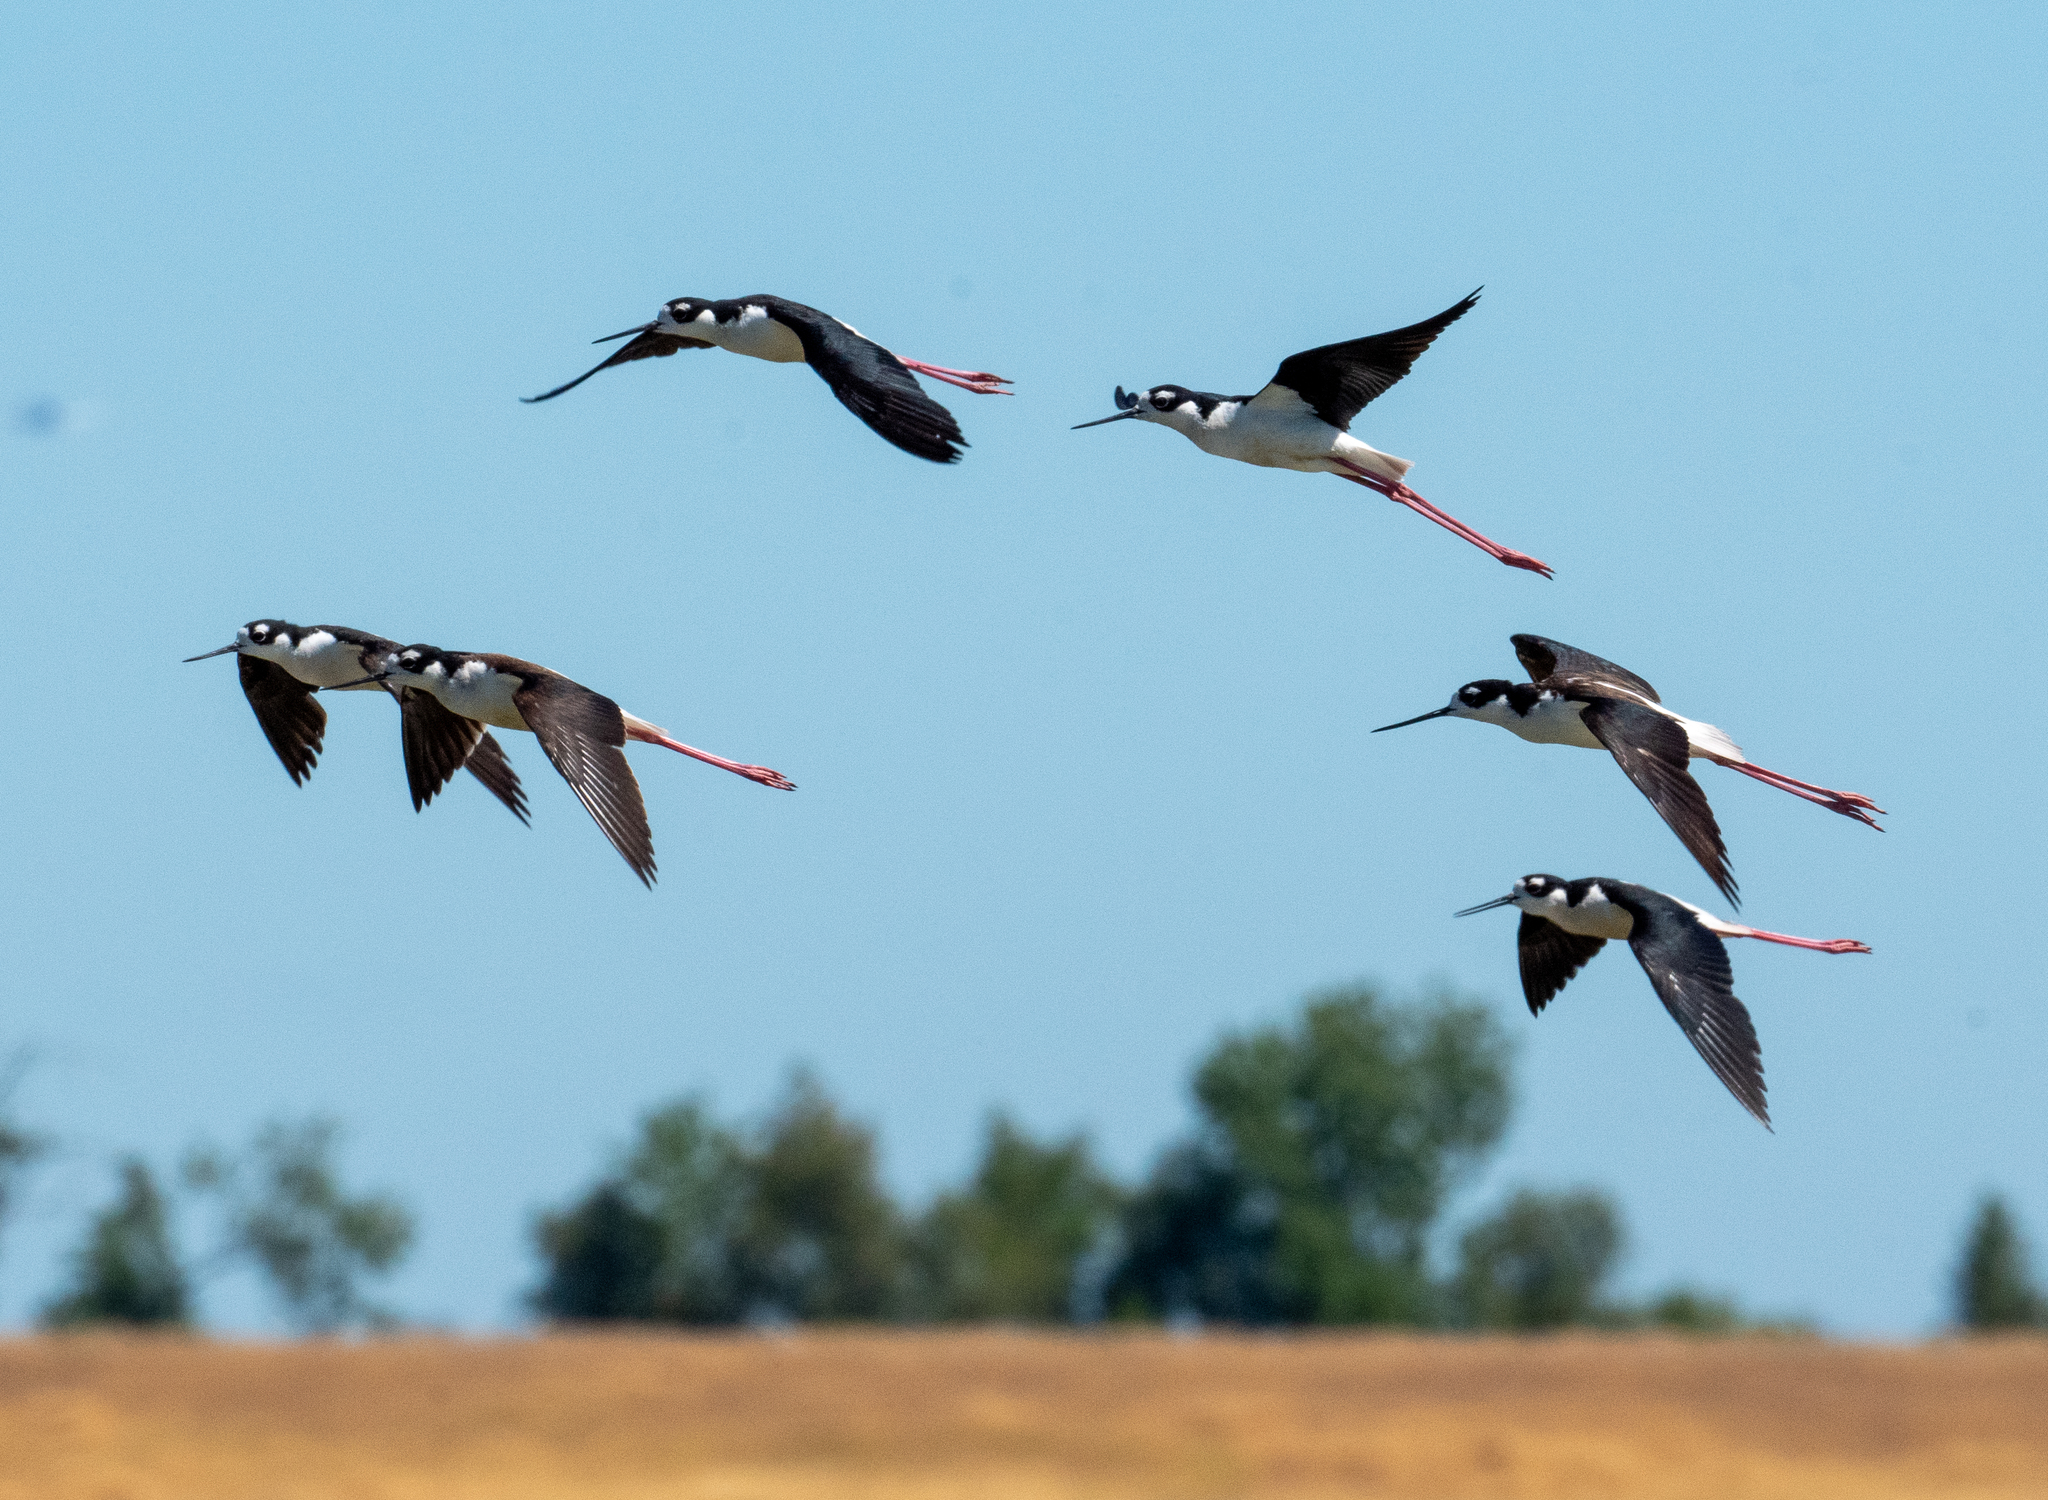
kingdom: Animalia
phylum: Chordata
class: Aves
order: Charadriiformes
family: Recurvirostridae
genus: Himantopus
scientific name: Himantopus mexicanus
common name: Black-necked stilt
